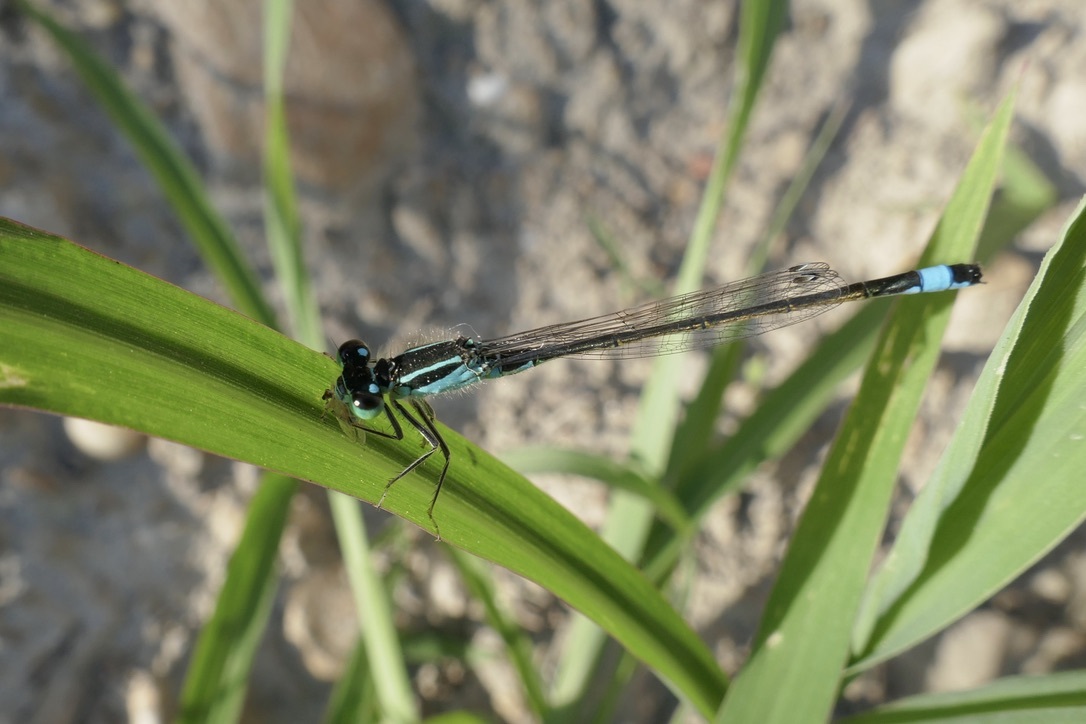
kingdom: Animalia
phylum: Arthropoda
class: Insecta
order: Odonata
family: Coenagrionidae
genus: Ischnura
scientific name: Ischnura elegans
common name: Blue-tailed damselfly
